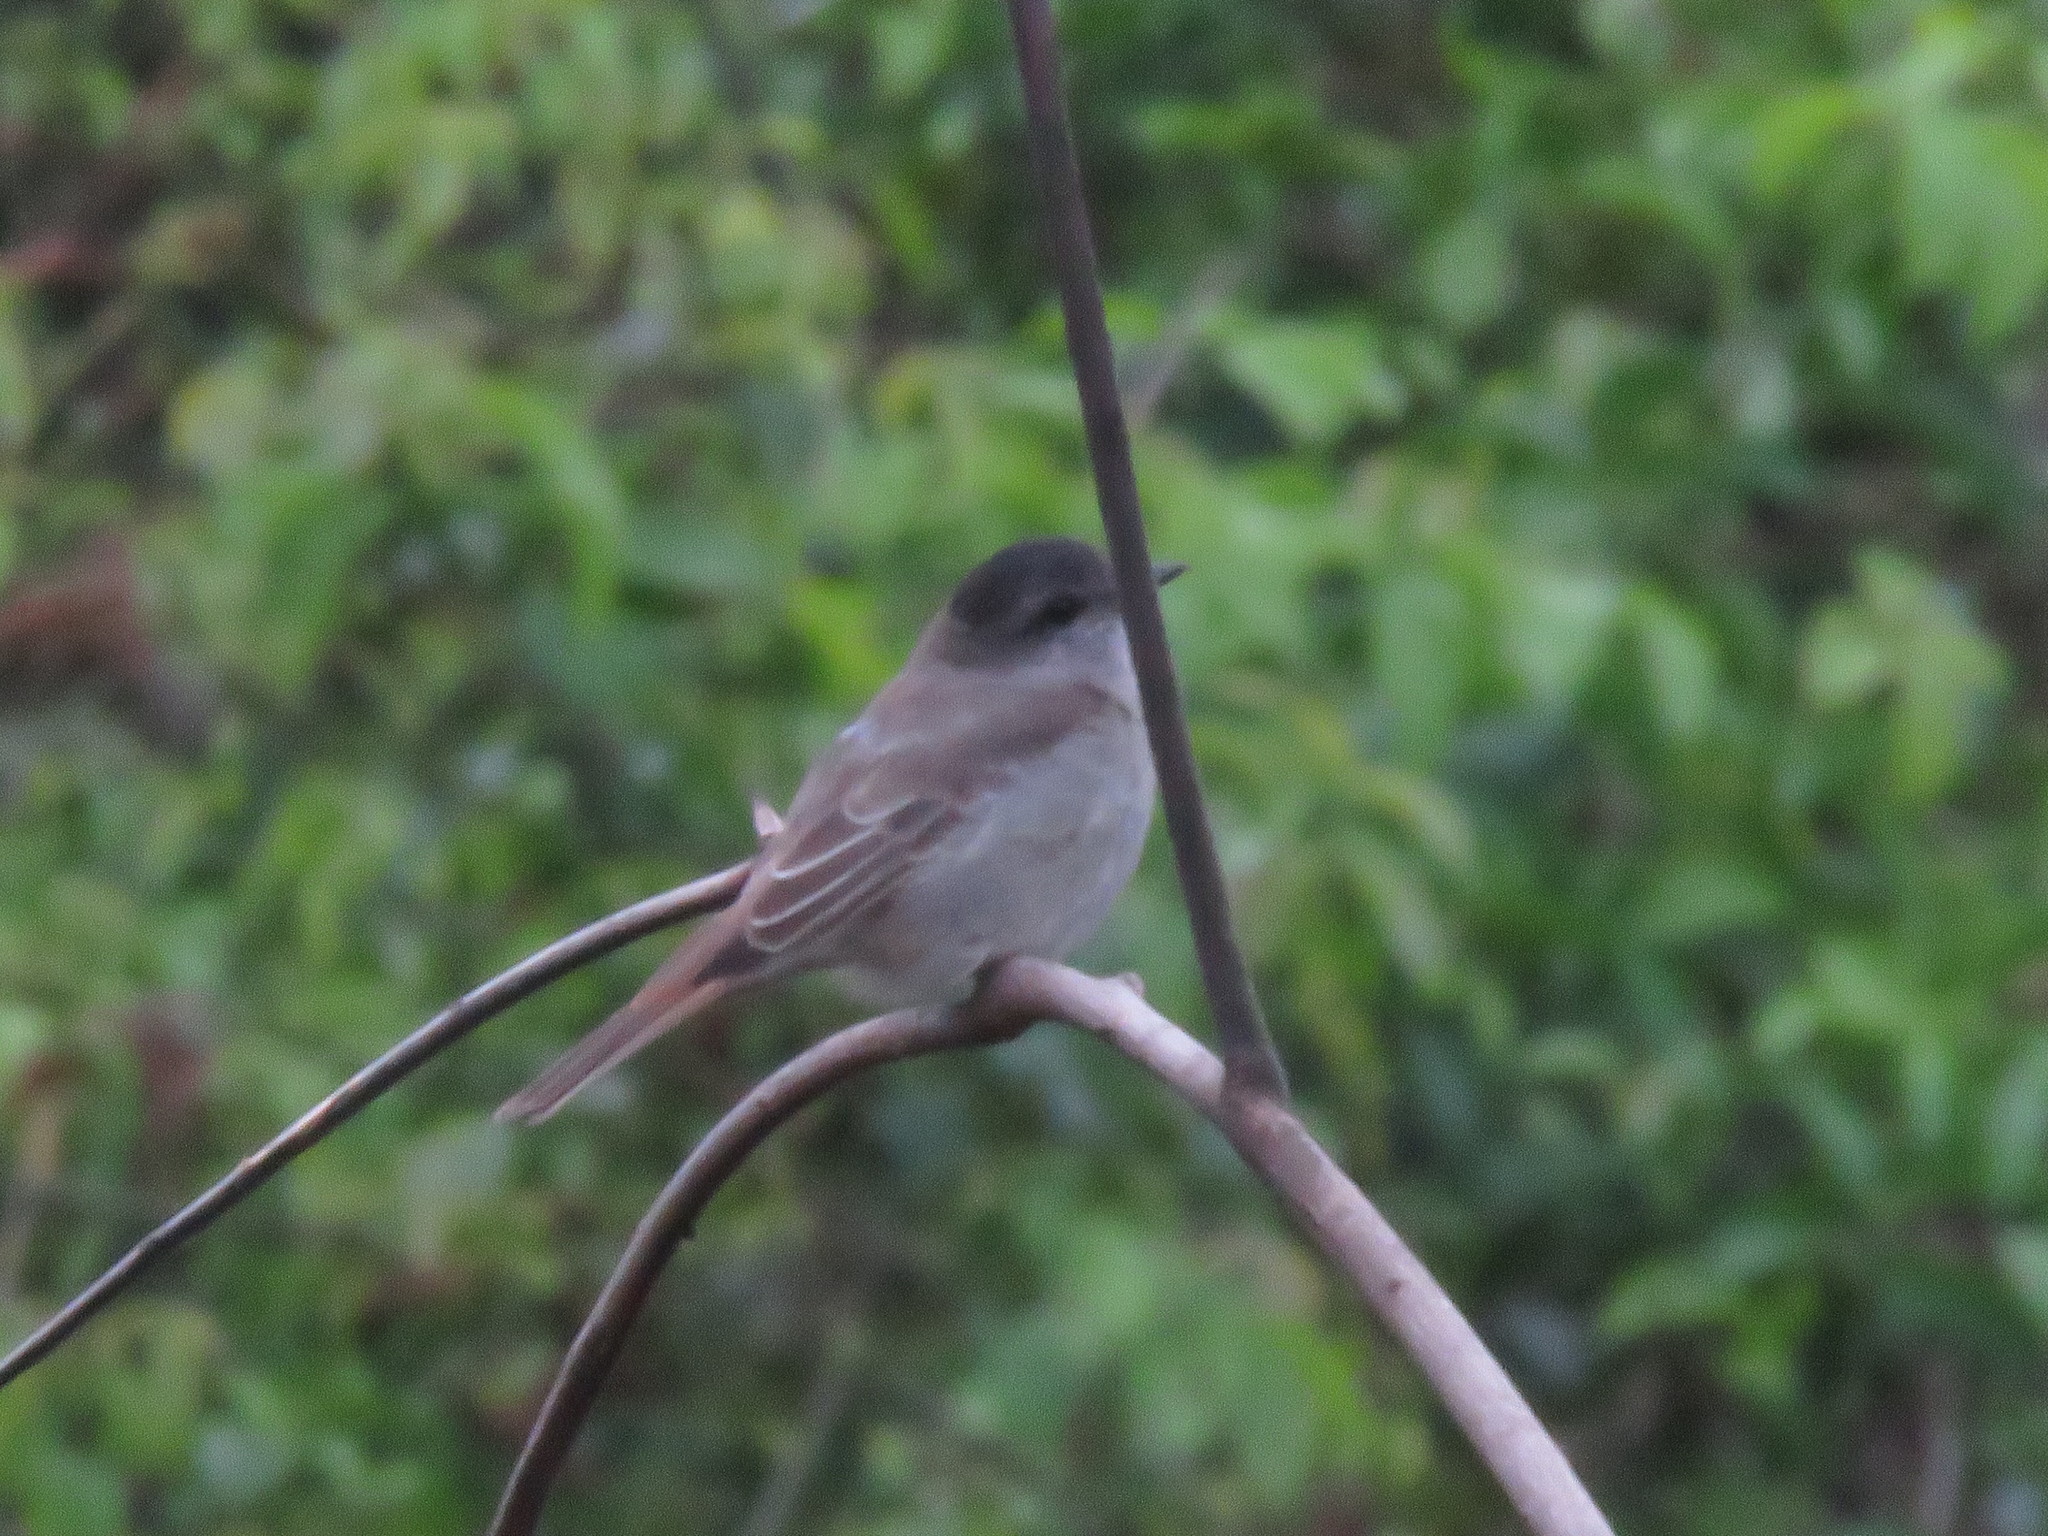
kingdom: Animalia
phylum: Chordata
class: Aves
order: Passeriformes
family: Tyrannidae
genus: Empidonomus
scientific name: Empidonomus aurantioatrocristatus
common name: Crowned slaty flycatcher
